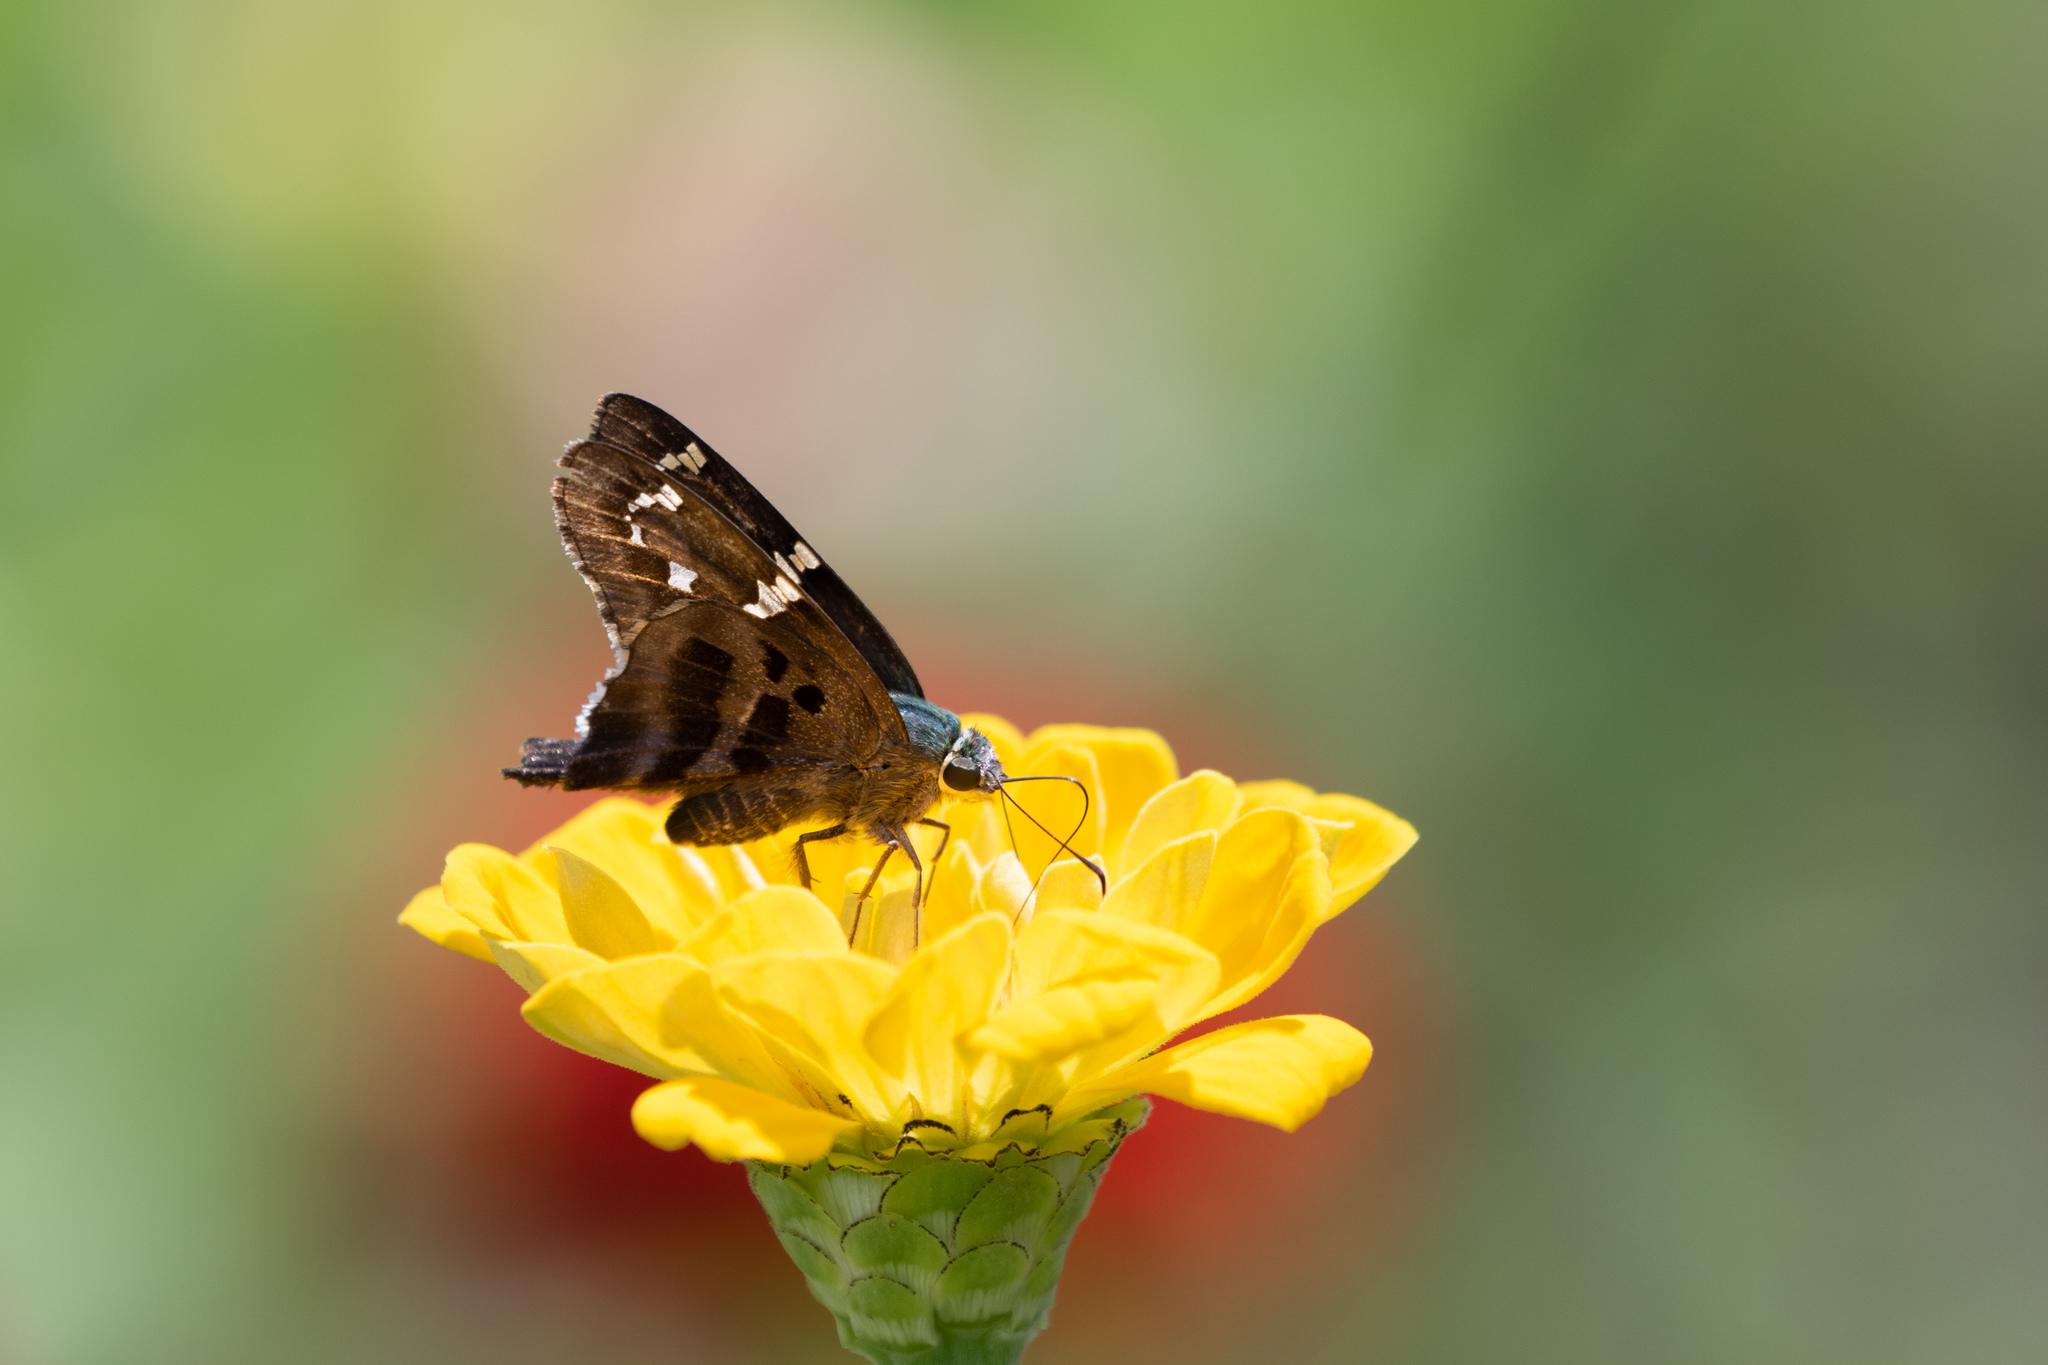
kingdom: Animalia
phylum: Arthropoda
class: Insecta
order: Lepidoptera
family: Hesperiidae
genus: Urbanus
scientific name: Urbanus proteus
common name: Long-tailed skipper
